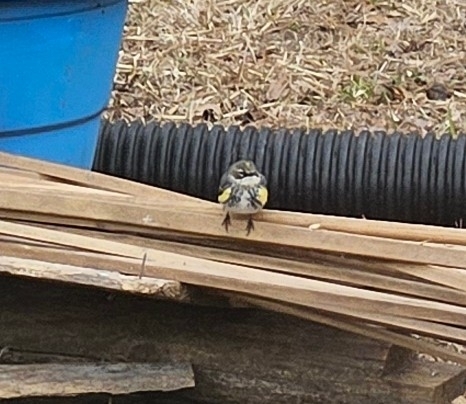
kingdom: Animalia
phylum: Chordata
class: Aves
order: Passeriformes
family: Parulidae
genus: Setophaga
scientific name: Setophaga coronata
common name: Myrtle warbler
